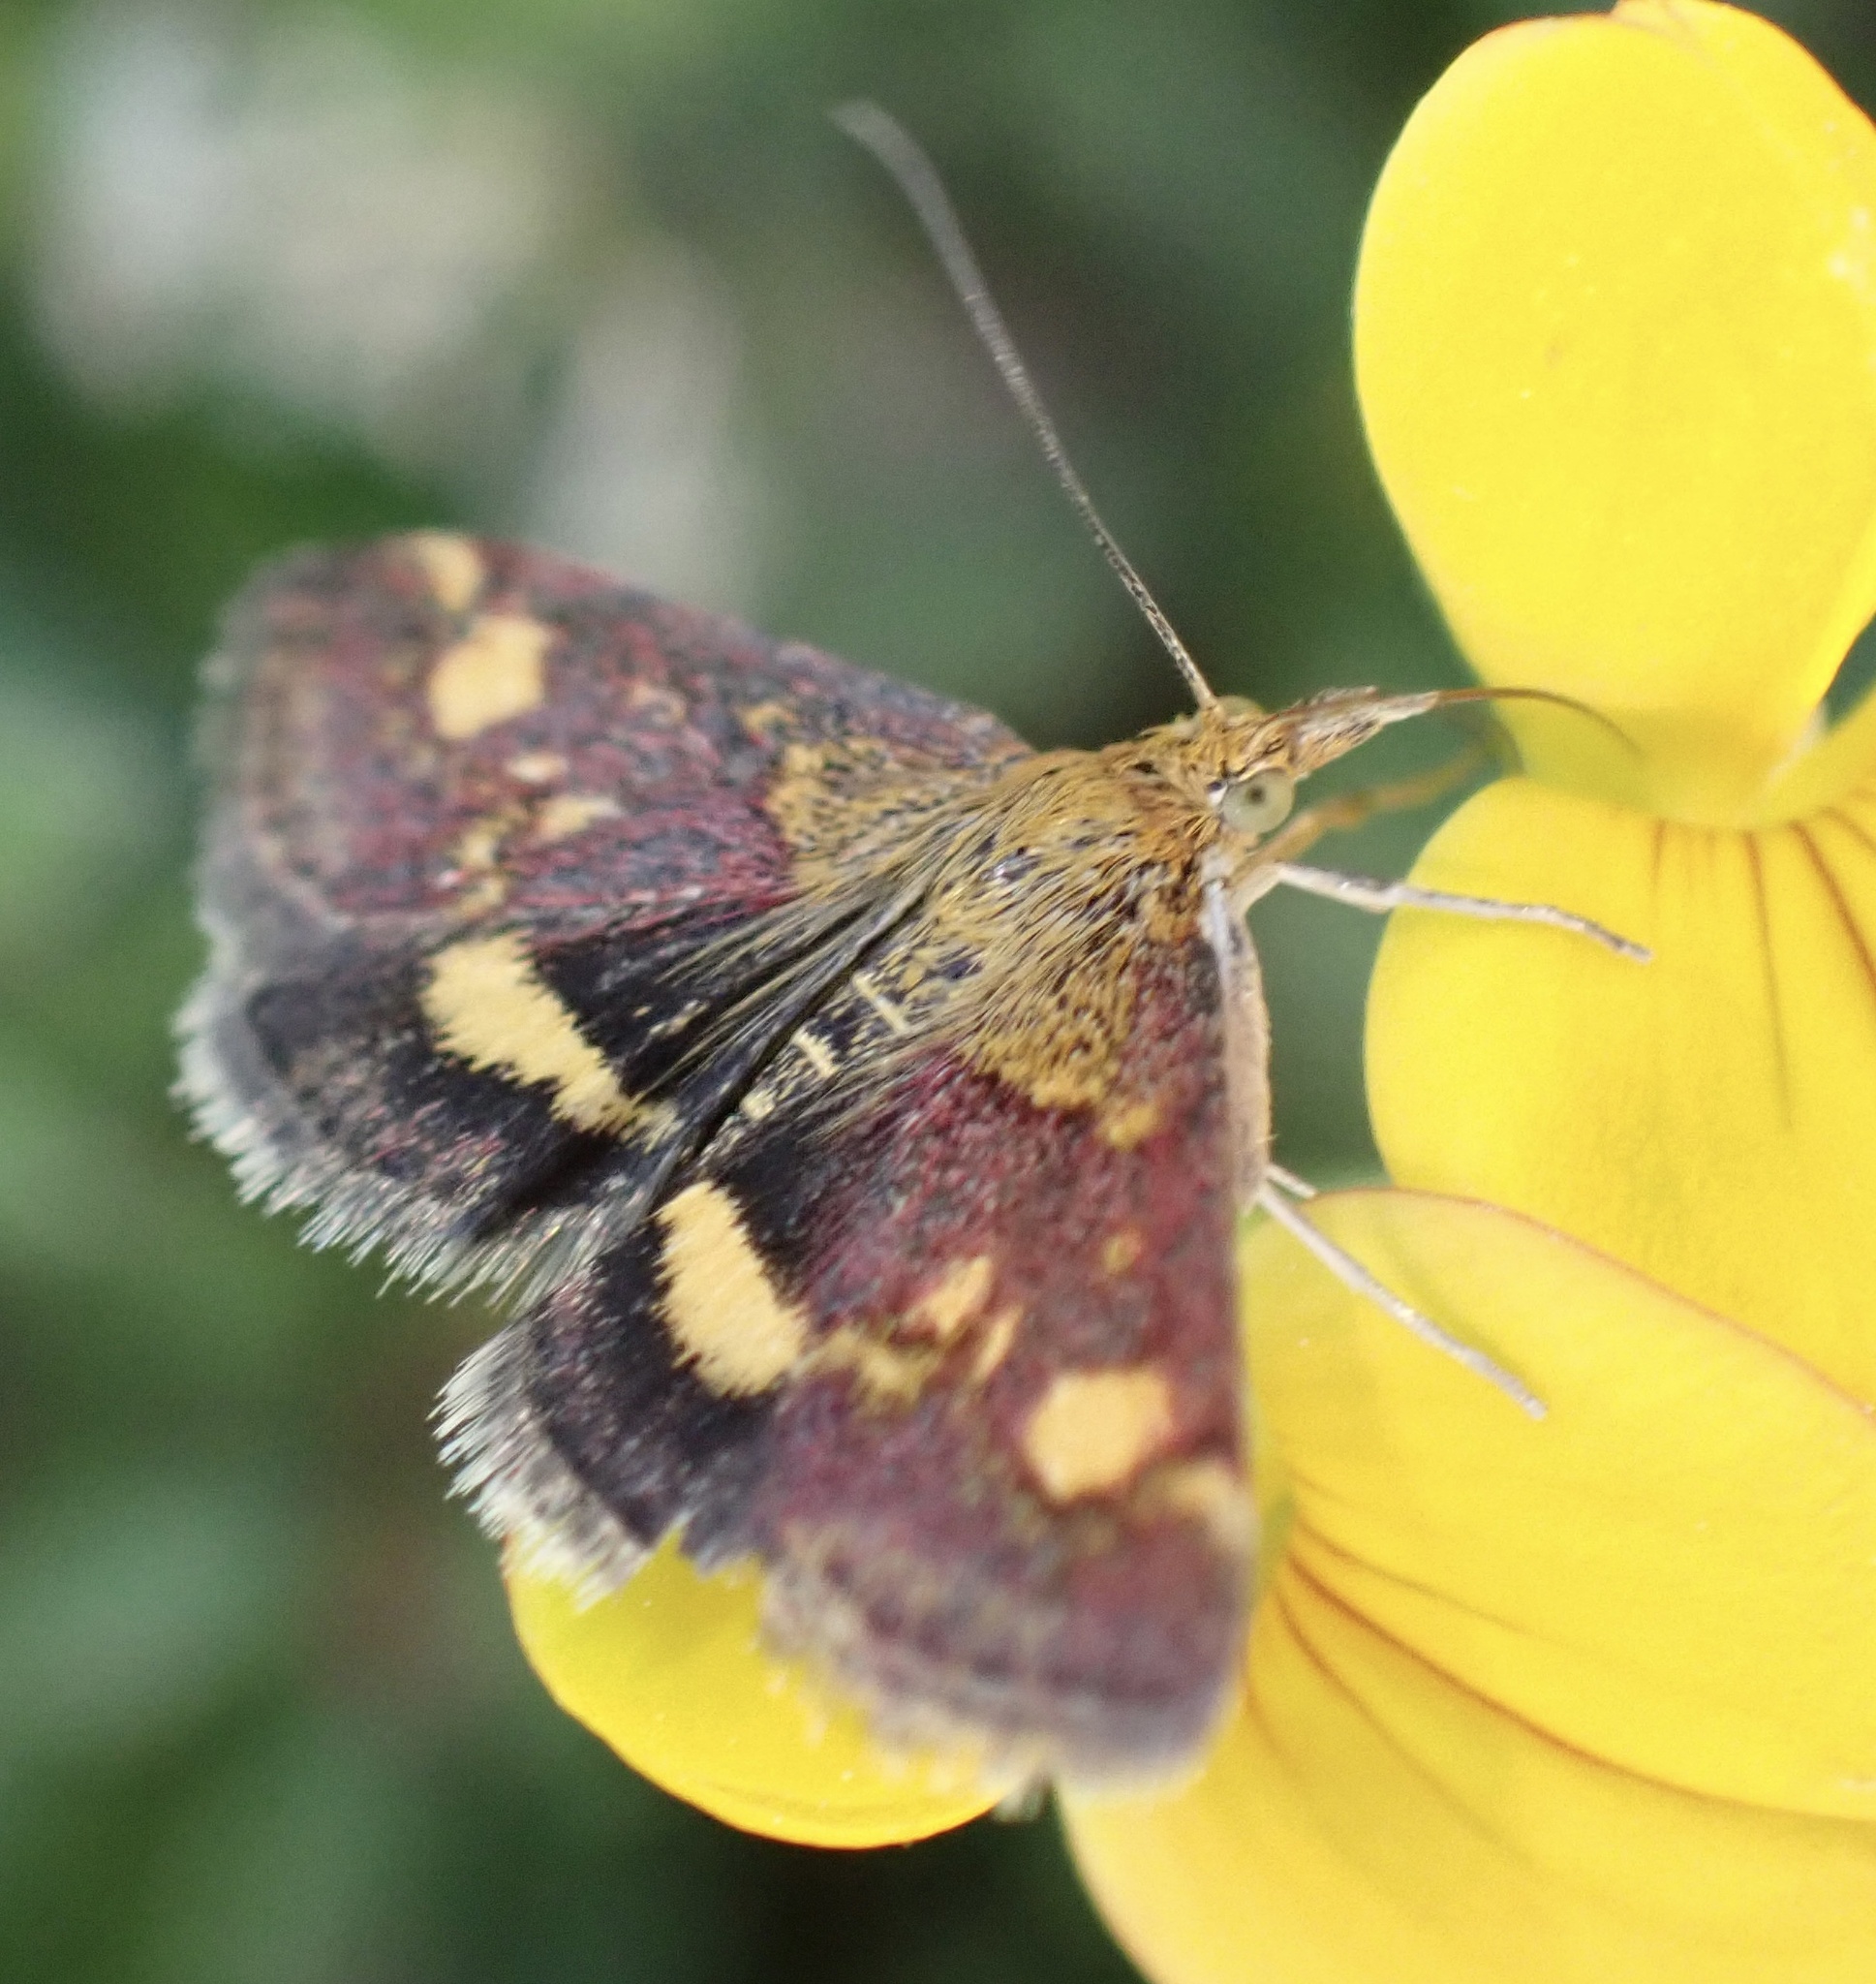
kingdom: Animalia
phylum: Arthropoda
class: Insecta
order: Lepidoptera
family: Crambidae
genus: Pyrausta
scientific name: Pyrausta aurata
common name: Small purple & gold
